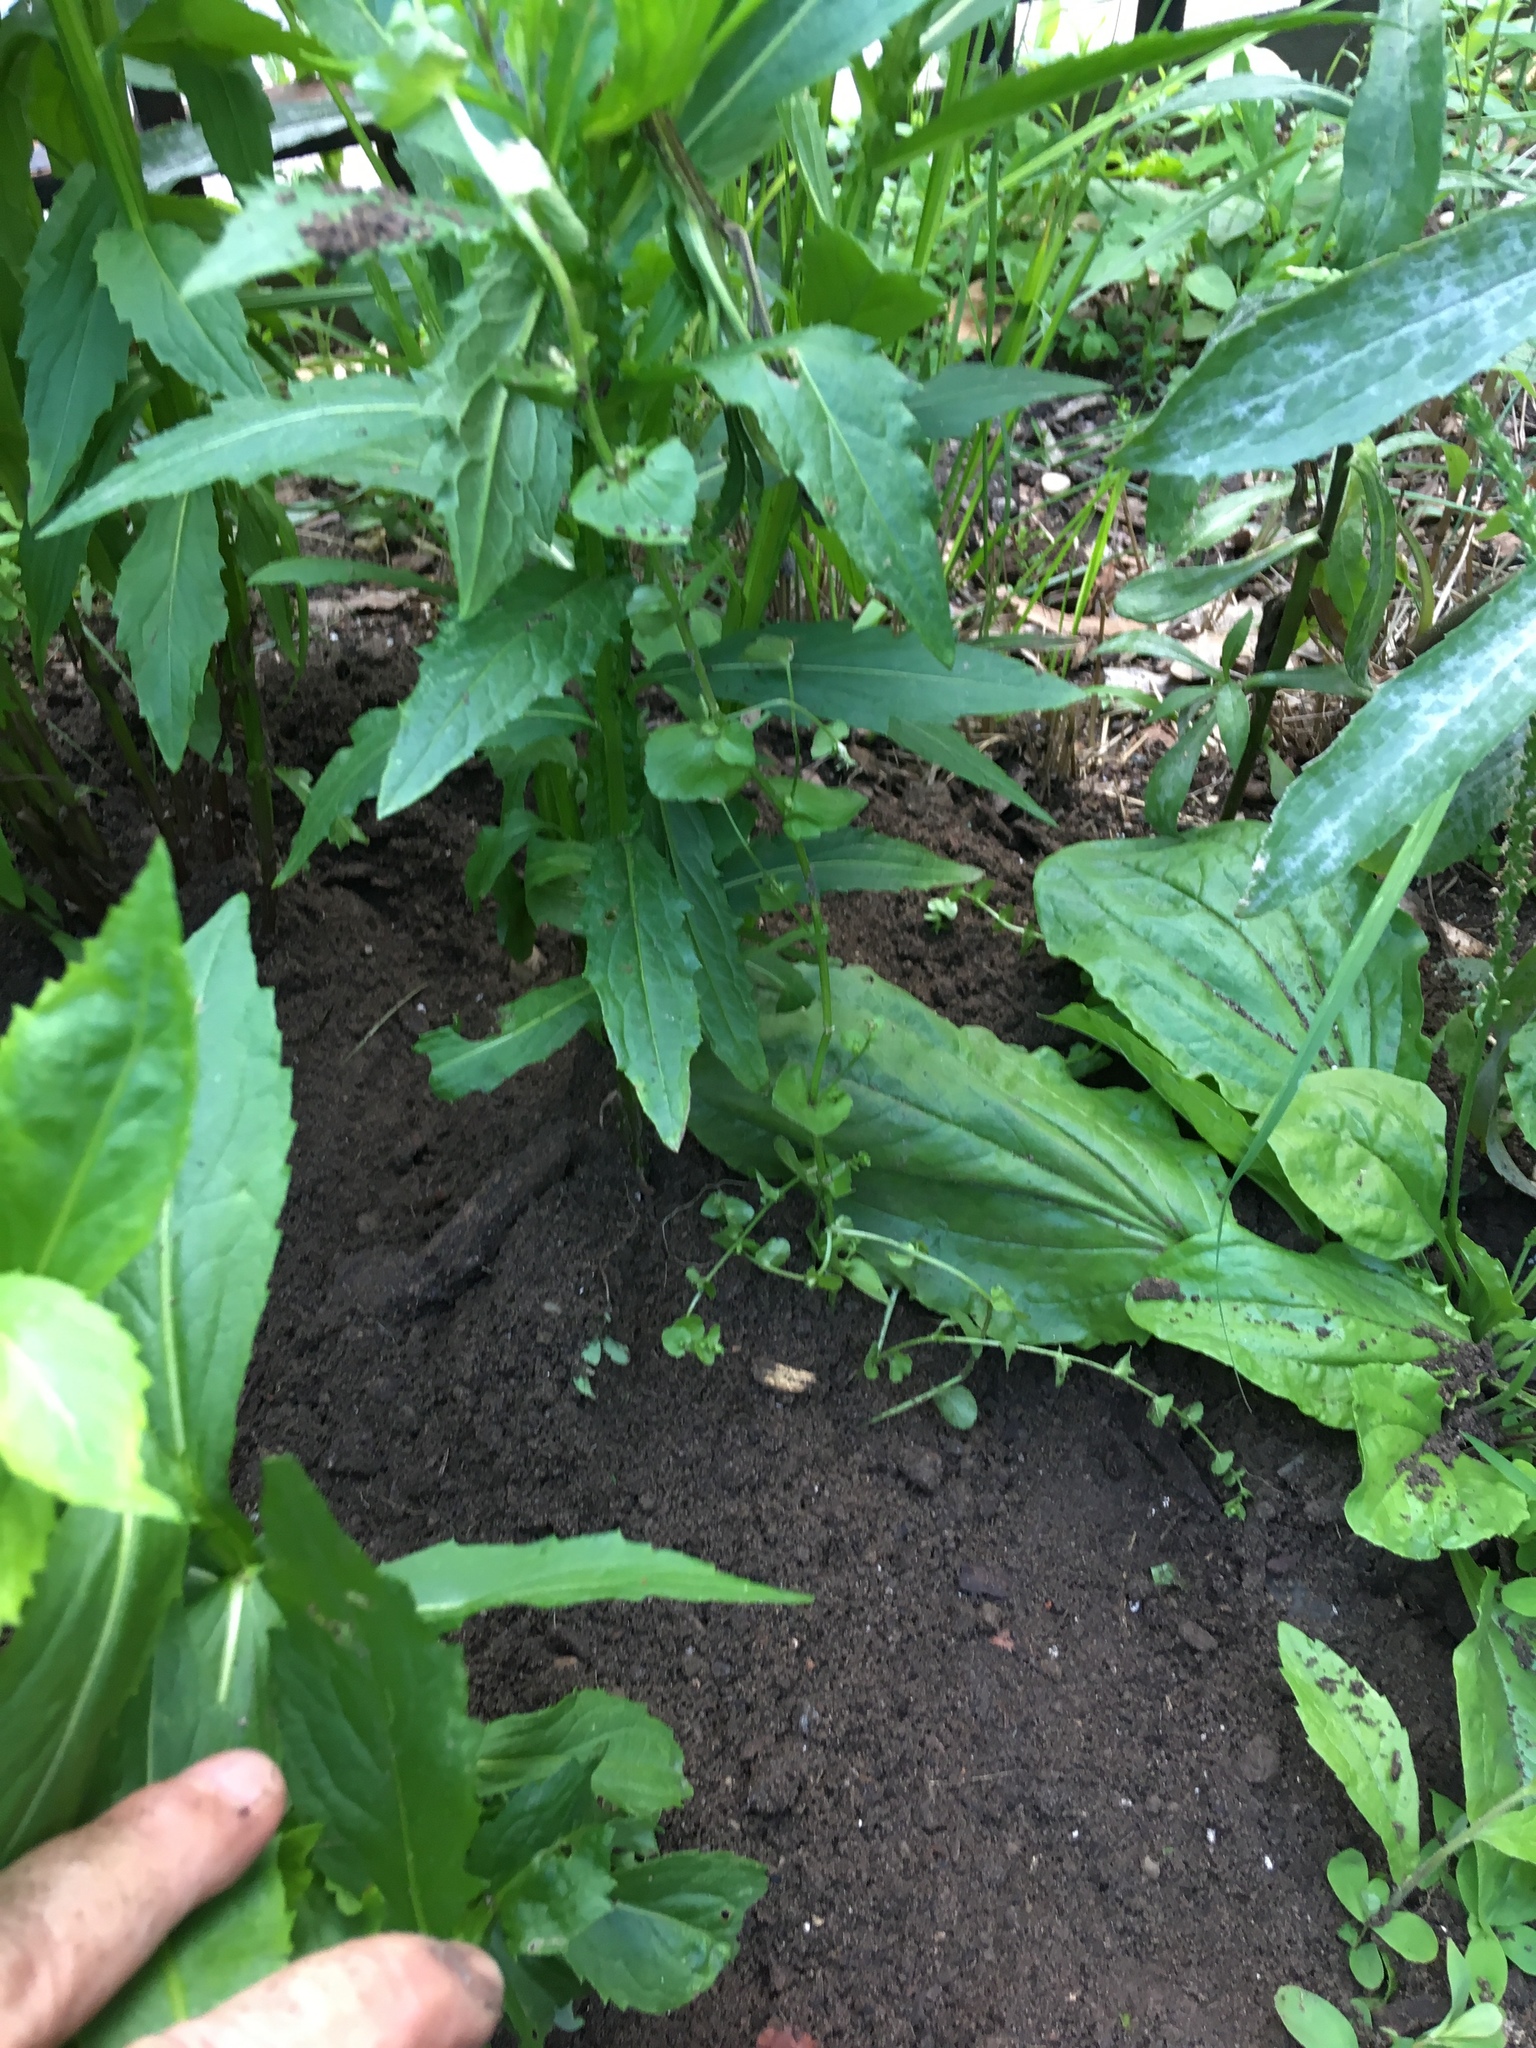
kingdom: Plantae
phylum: Tracheophyta
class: Magnoliopsida
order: Asterales
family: Campanulaceae
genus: Triodanis
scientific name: Triodanis perfoliata
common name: Clasping venus' looking-glass
